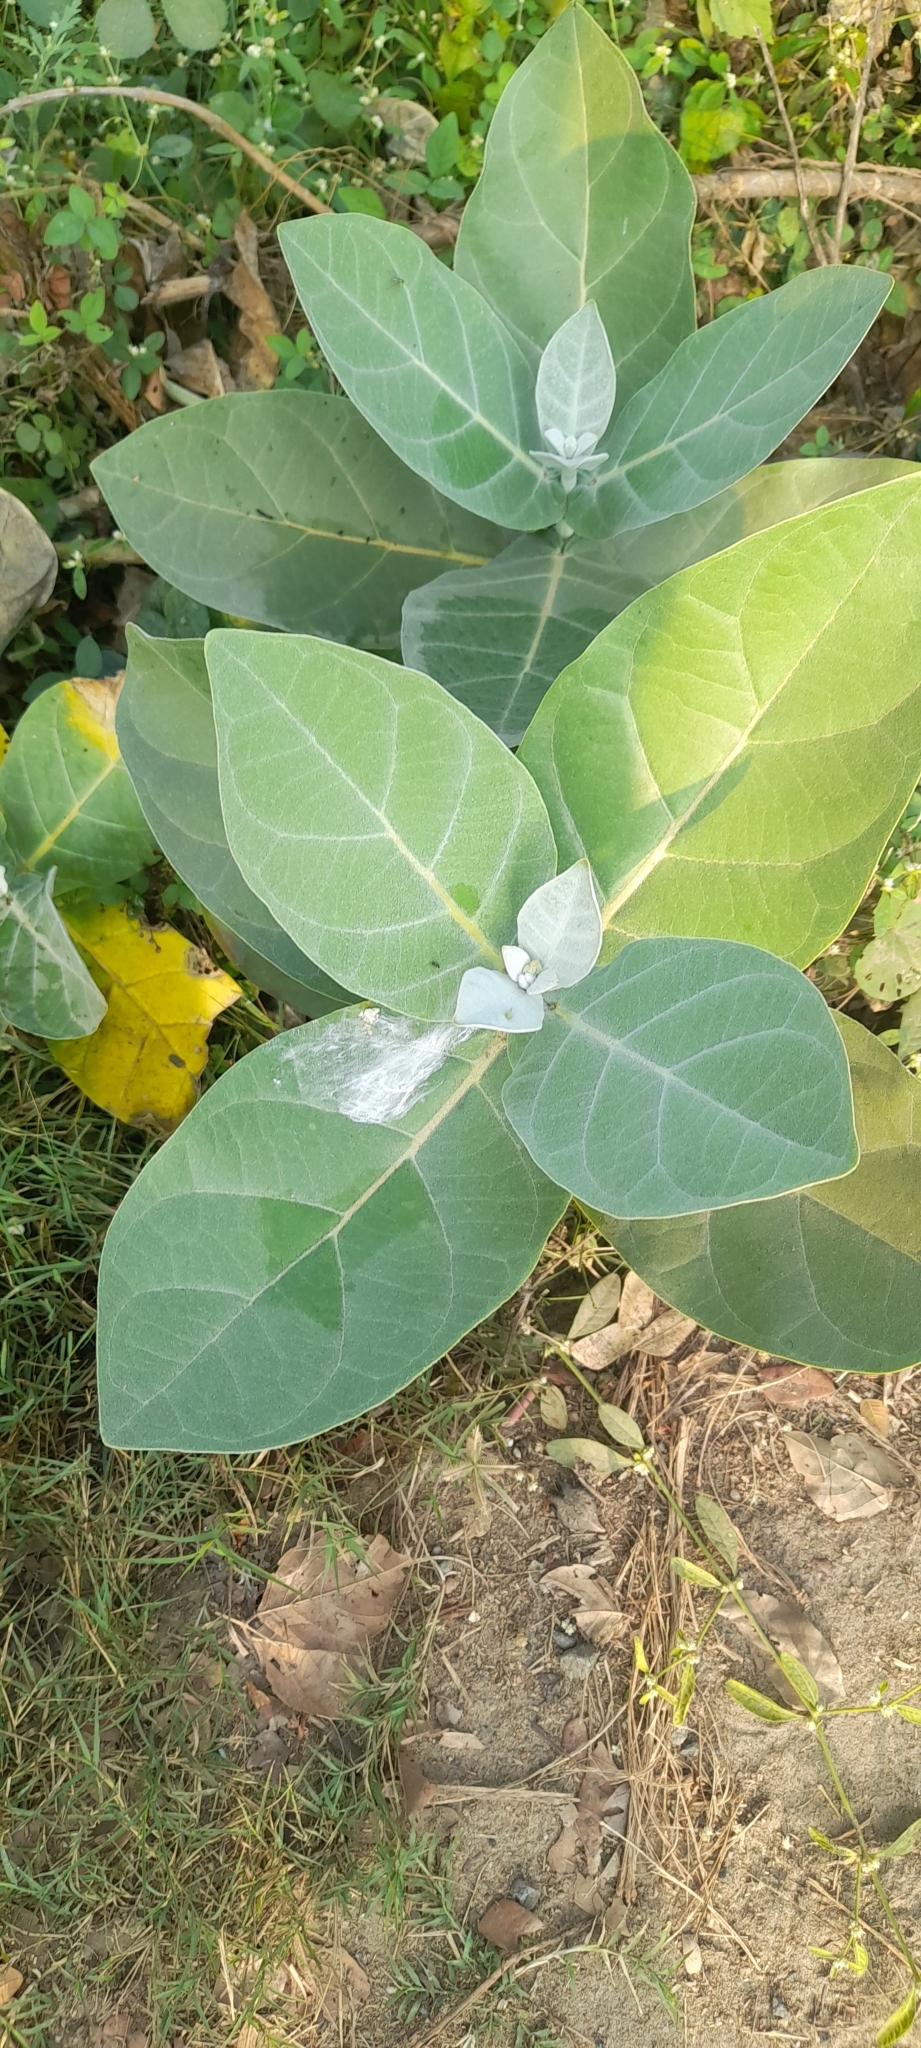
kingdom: Plantae
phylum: Tracheophyta
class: Magnoliopsida
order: Gentianales
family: Apocynaceae
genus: Calotropis
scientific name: Calotropis gigantea
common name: Crown flower
